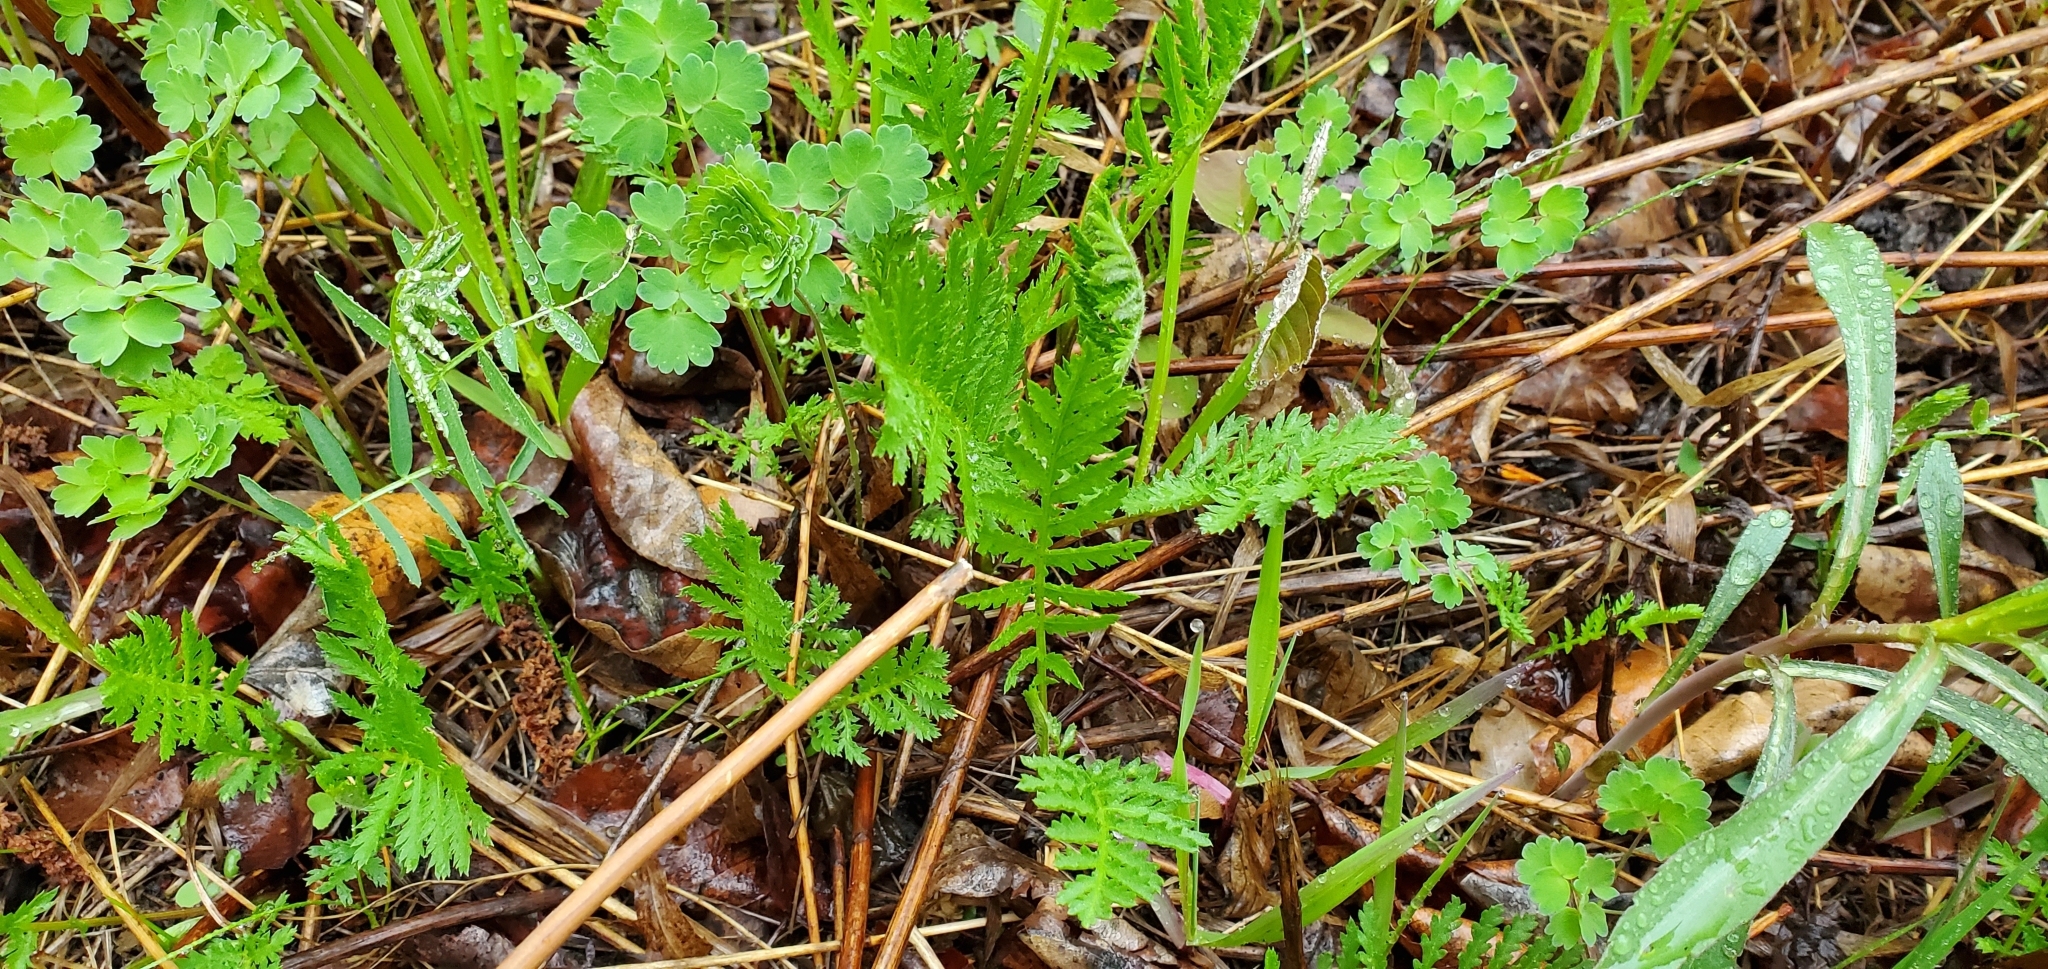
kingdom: Plantae
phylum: Tracheophyta
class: Magnoliopsida
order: Asterales
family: Asteraceae
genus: Tanacetum
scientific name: Tanacetum vulgare
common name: Common tansy
